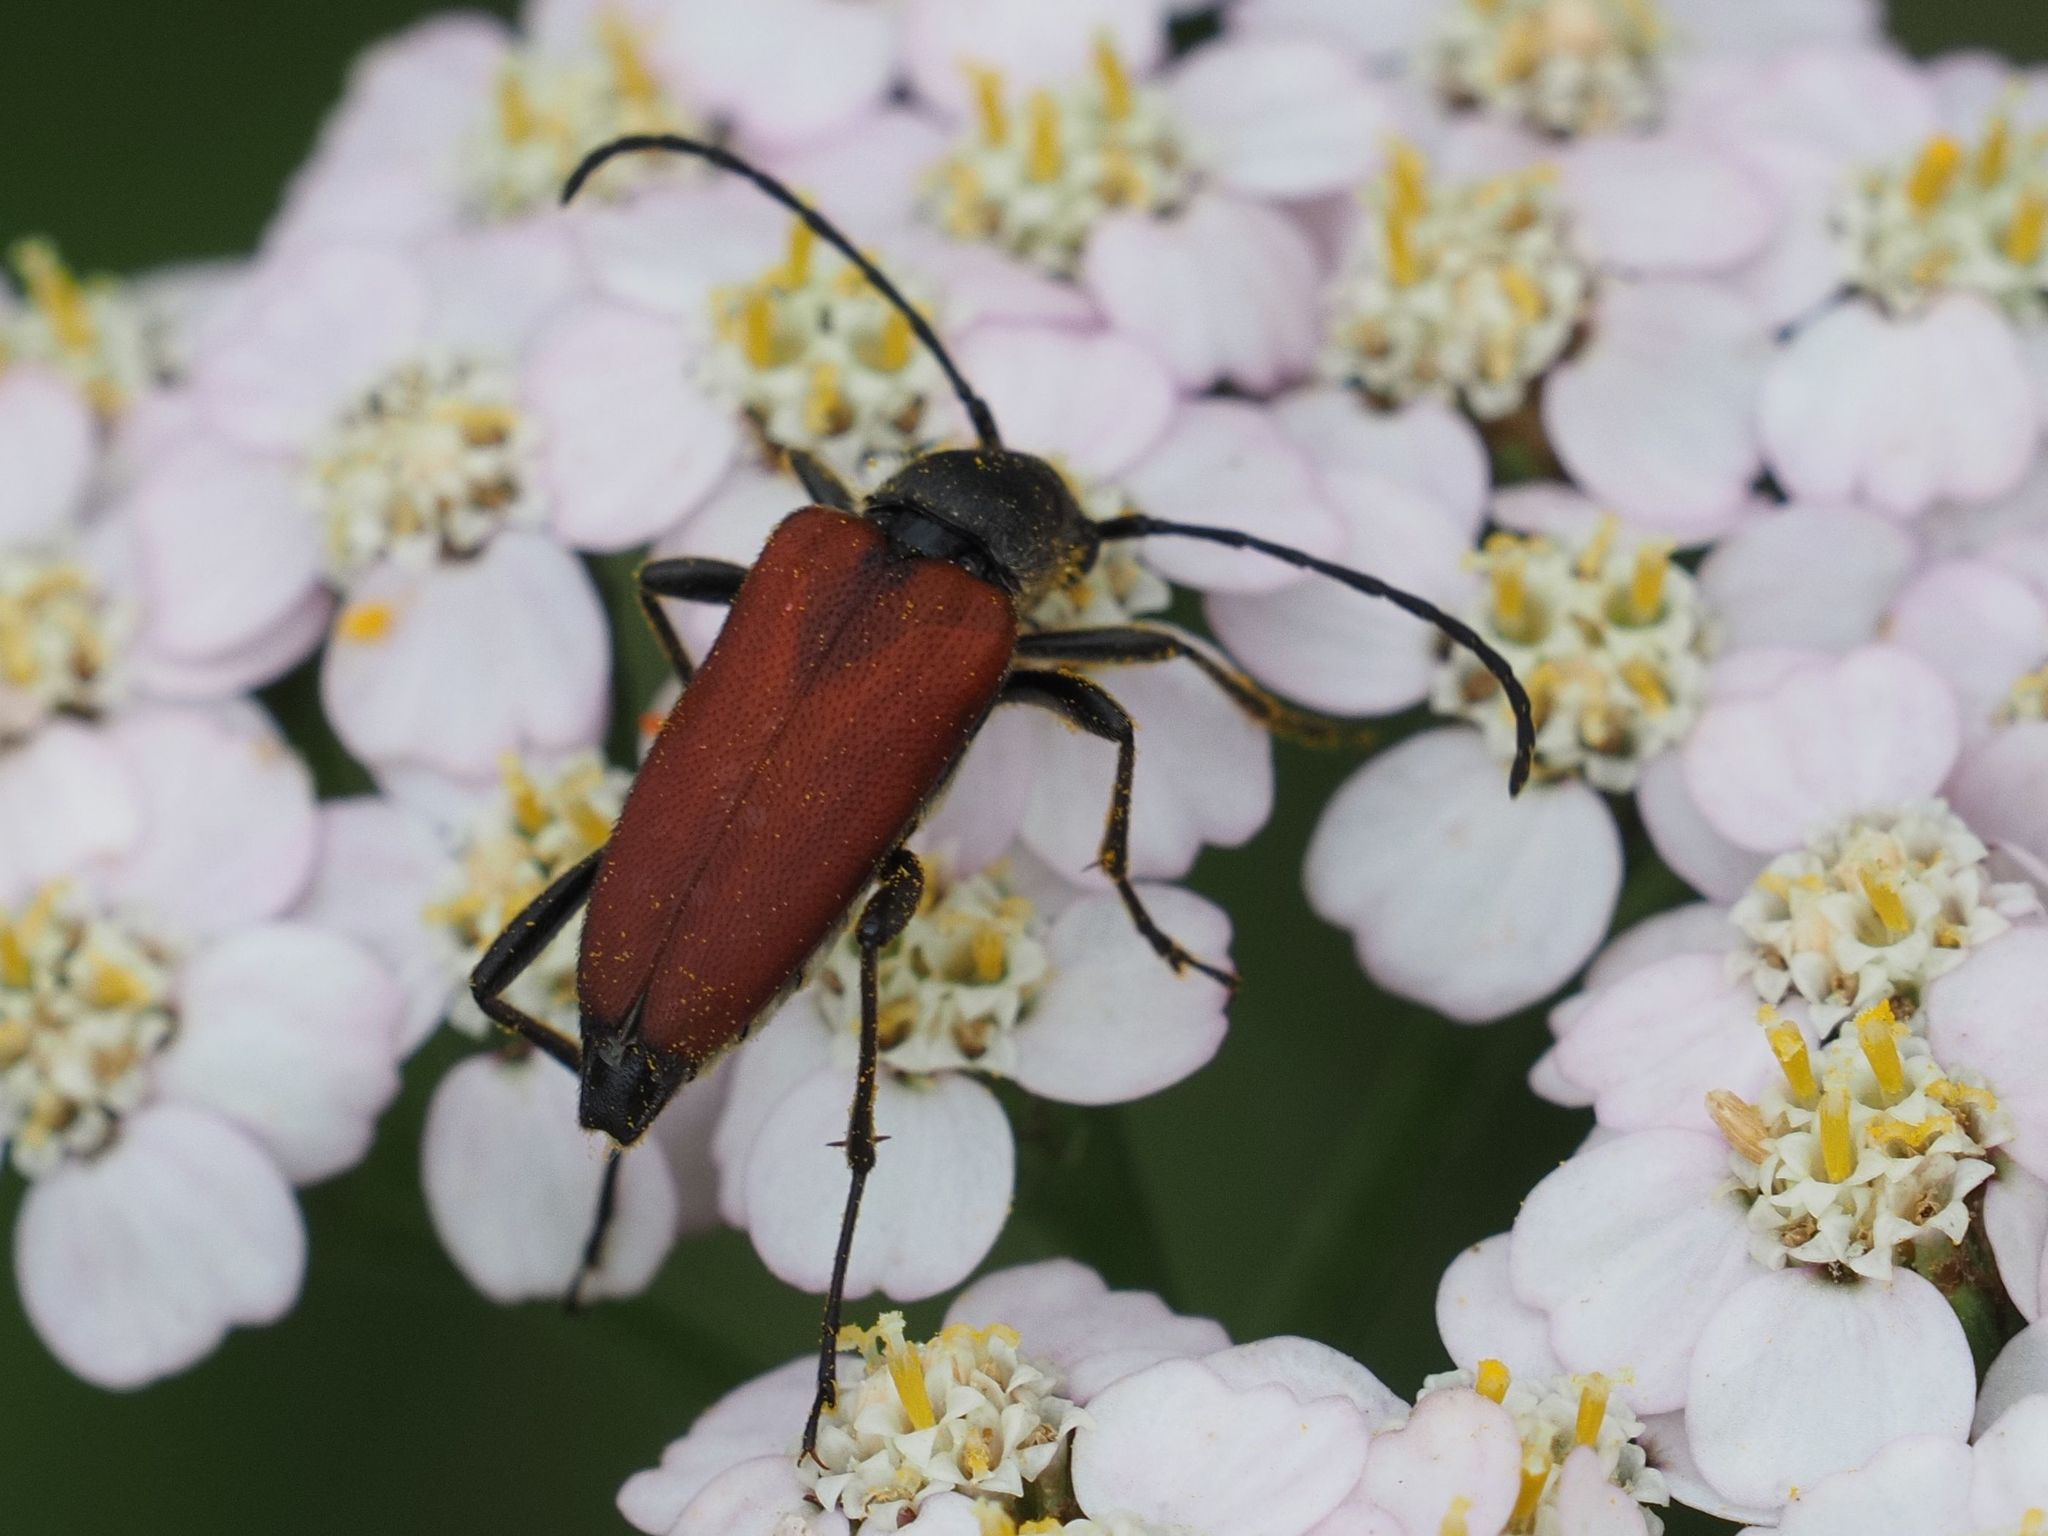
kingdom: Animalia
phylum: Arthropoda
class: Insecta
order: Coleoptera
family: Cerambycidae
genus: Anastrangalia
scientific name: Anastrangalia sanguinolenta
